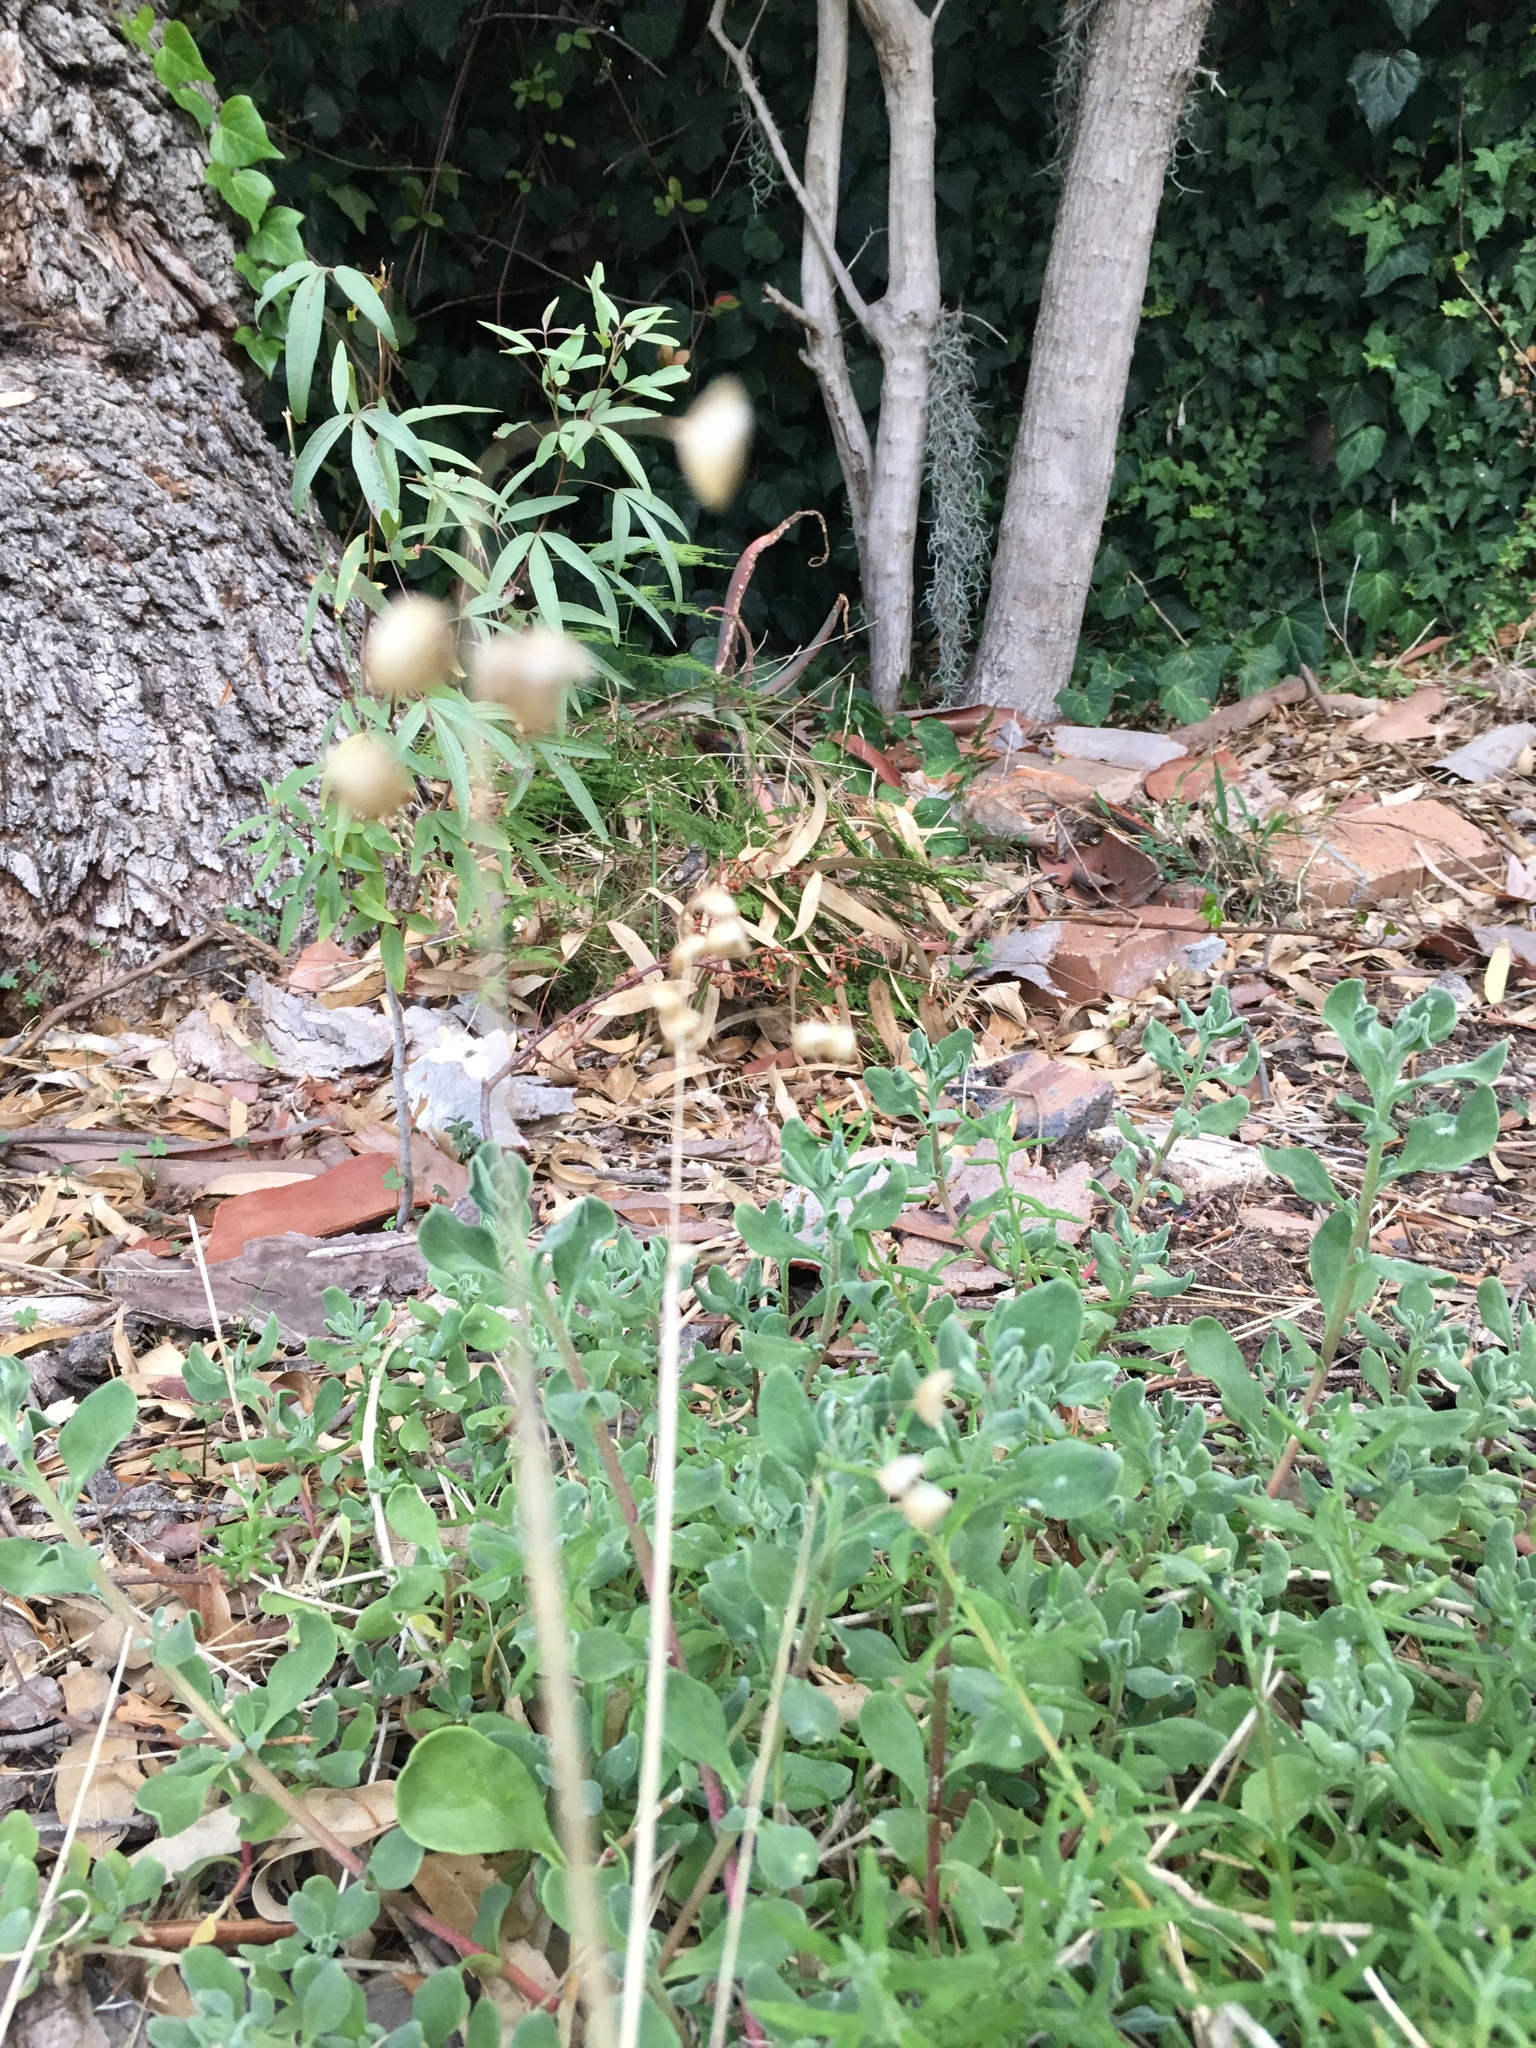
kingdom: Plantae
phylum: Tracheophyta
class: Liliopsida
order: Poales
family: Poaceae
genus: Briza
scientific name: Briza maxima
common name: Big quakinggrass
